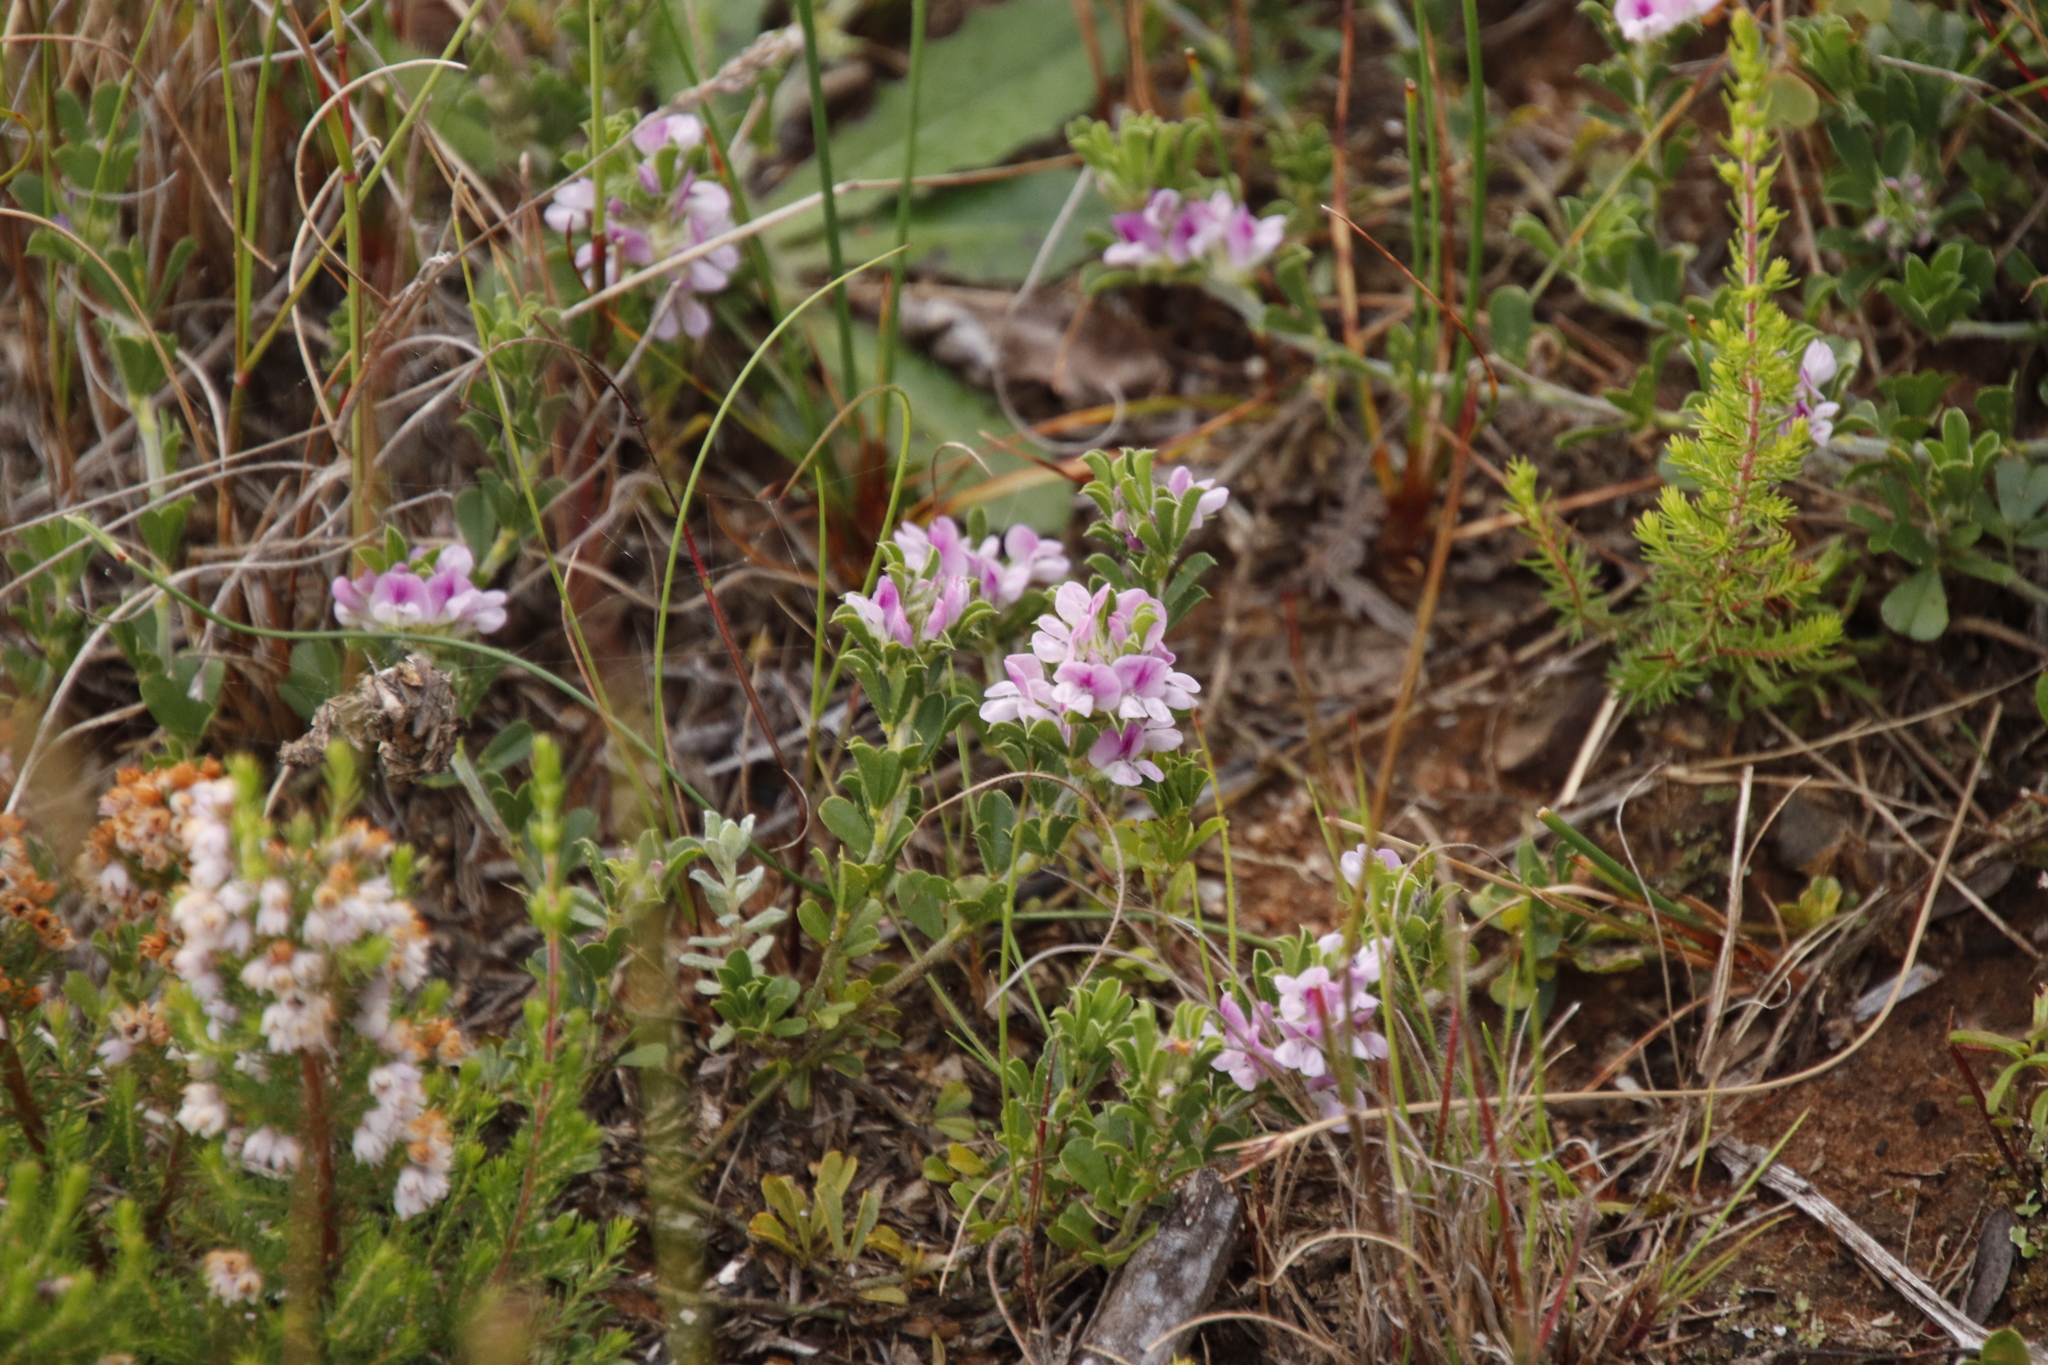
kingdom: Plantae
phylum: Tracheophyta
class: Magnoliopsida
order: Fabales
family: Fabaceae
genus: Psoralea
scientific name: Psoralea
